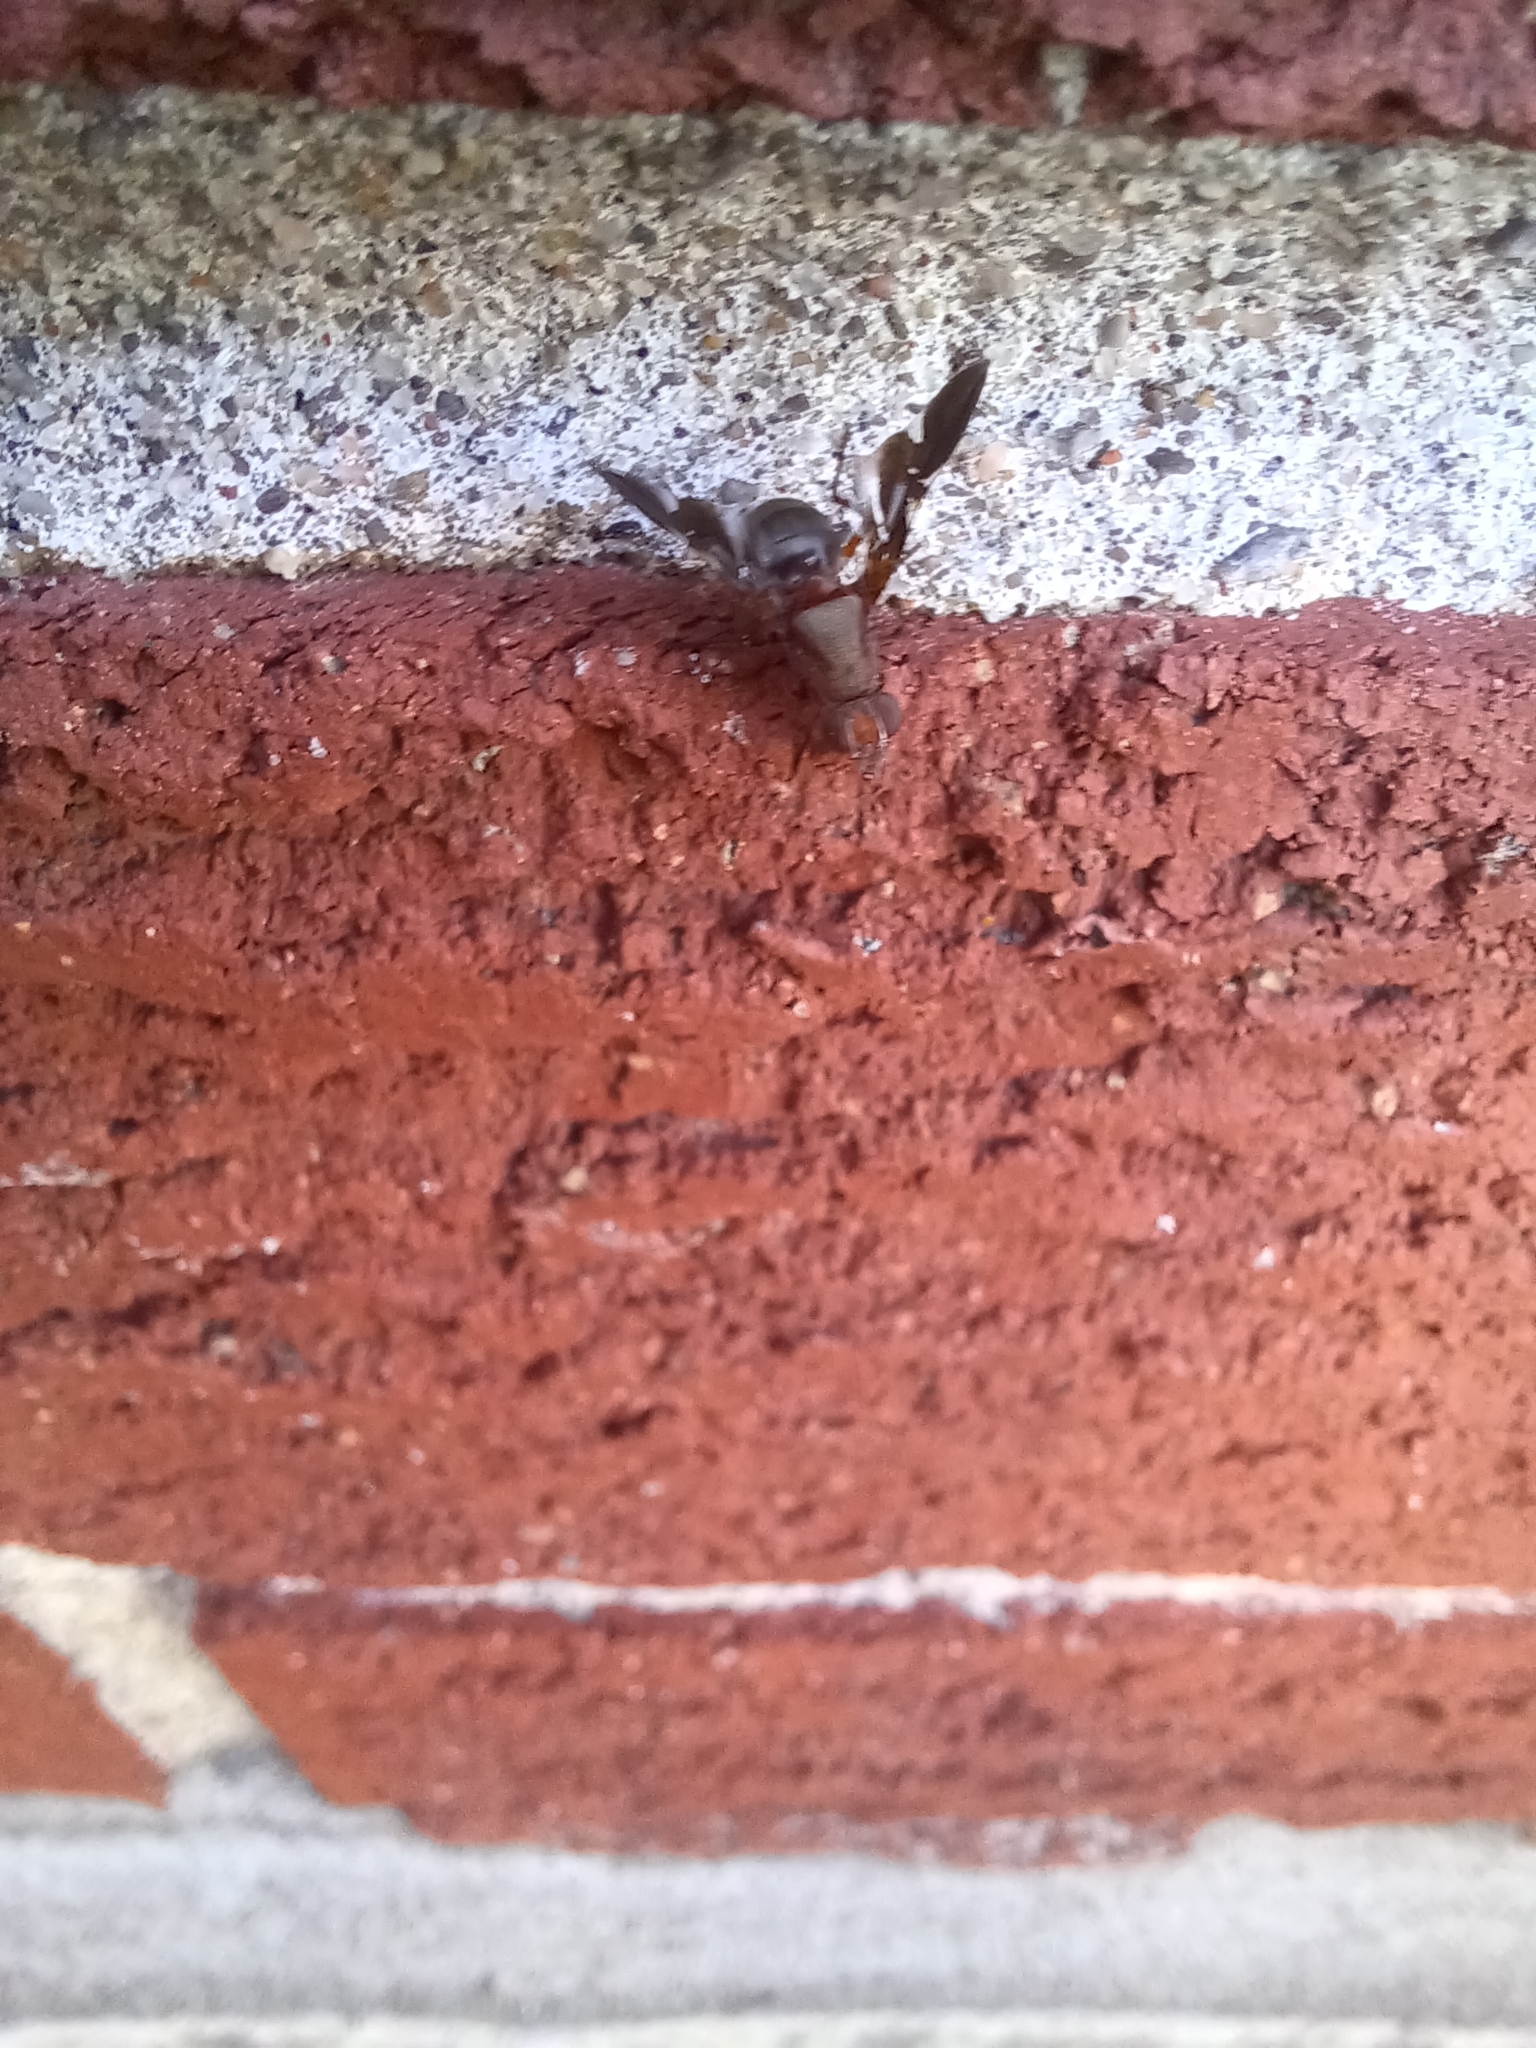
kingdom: Animalia
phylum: Arthropoda
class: Insecta
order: Diptera
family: Ulidiidae
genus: Delphinia
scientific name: Delphinia picta
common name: Common picture-winged fly
